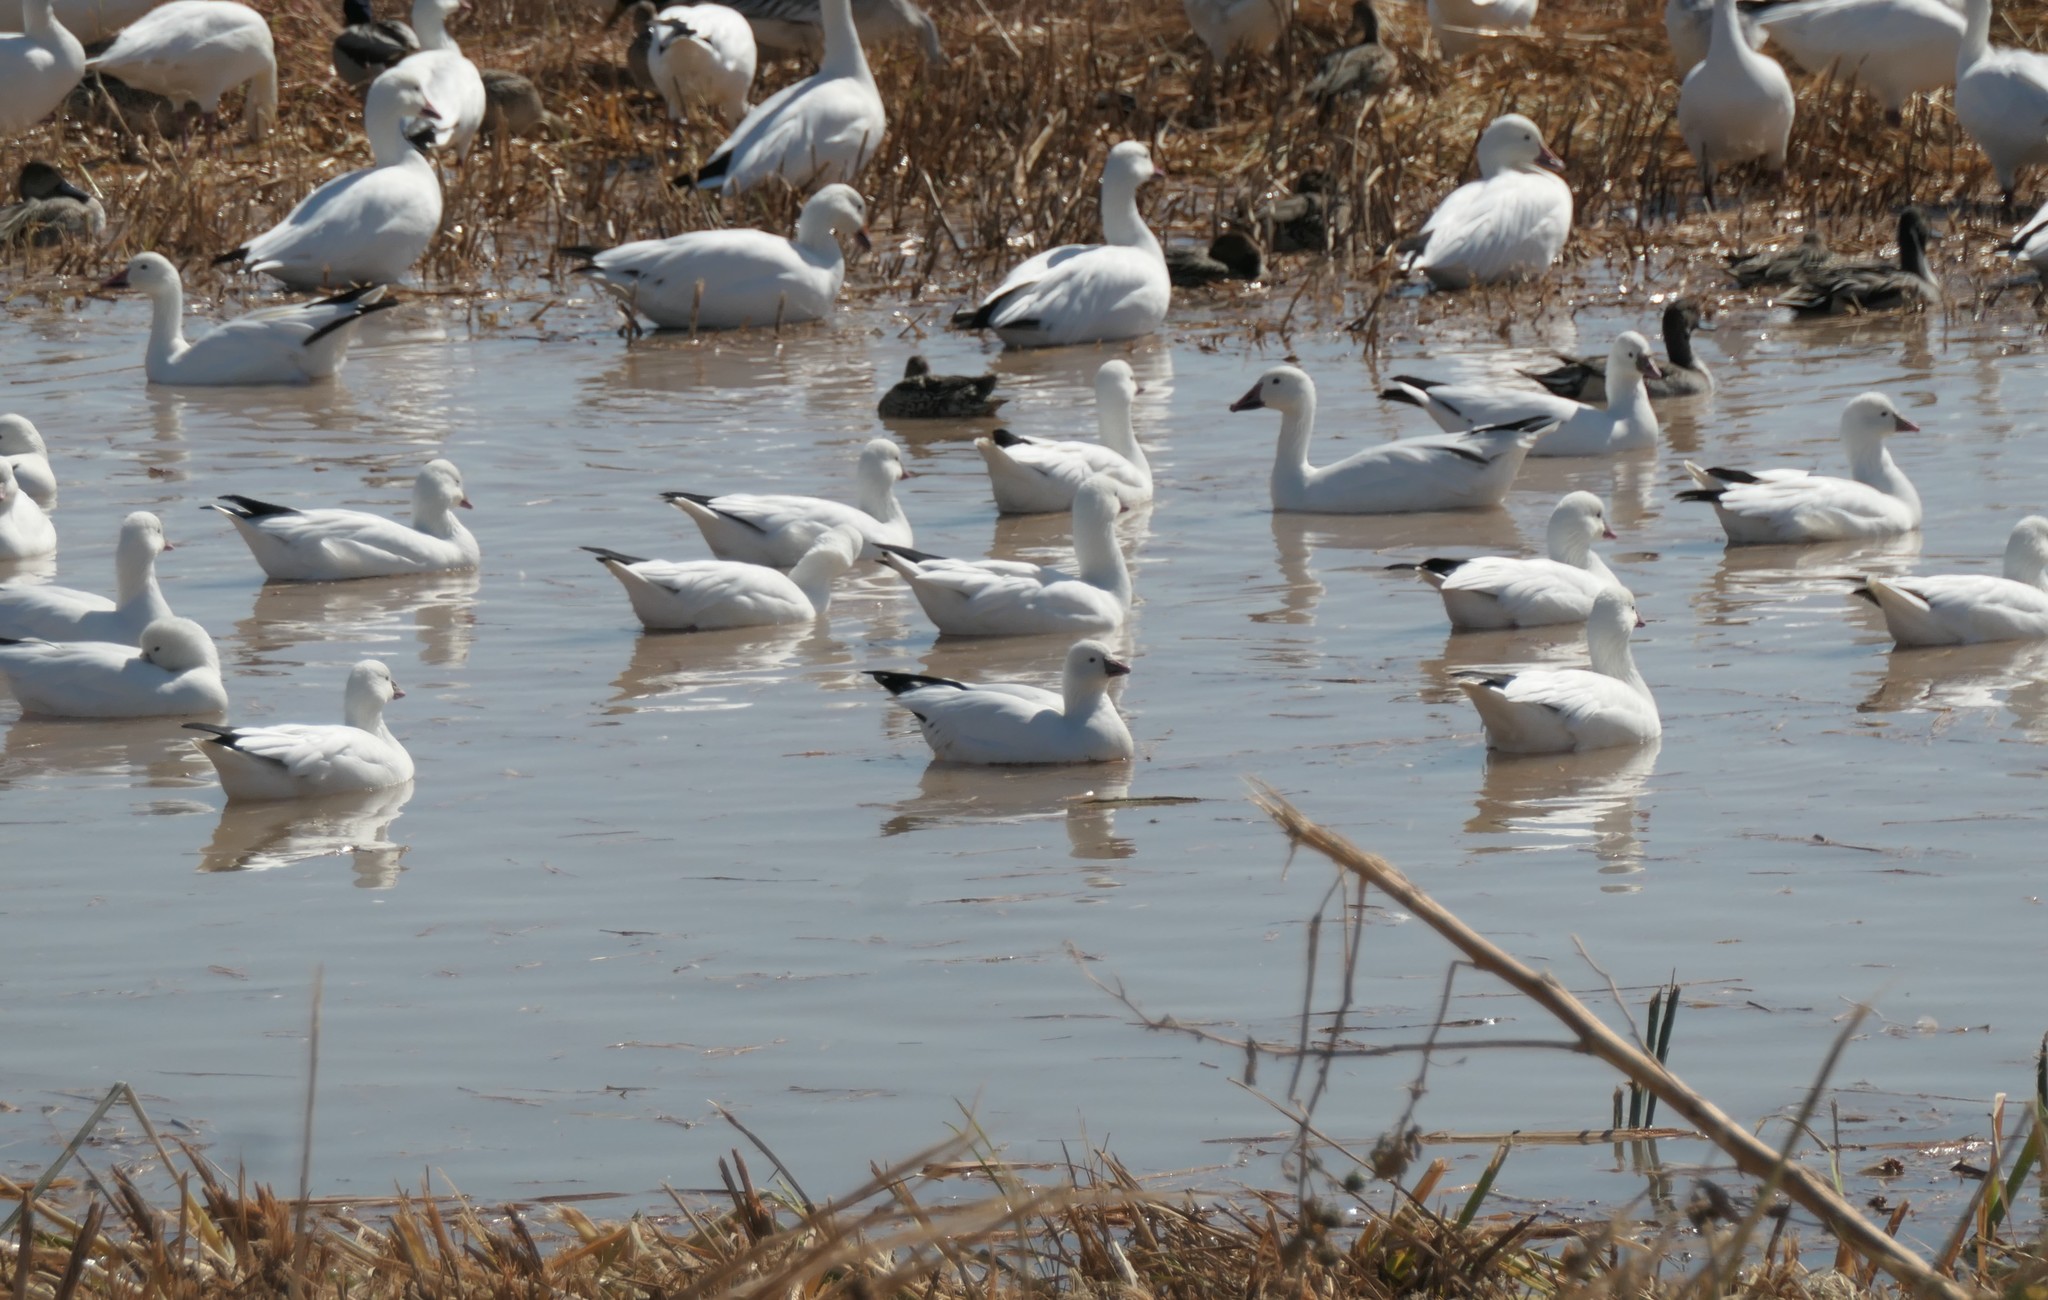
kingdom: Animalia
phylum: Chordata
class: Aves
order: Anseriformes
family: Anatidae
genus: Anser
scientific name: Anser rossii
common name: Ross's goose
